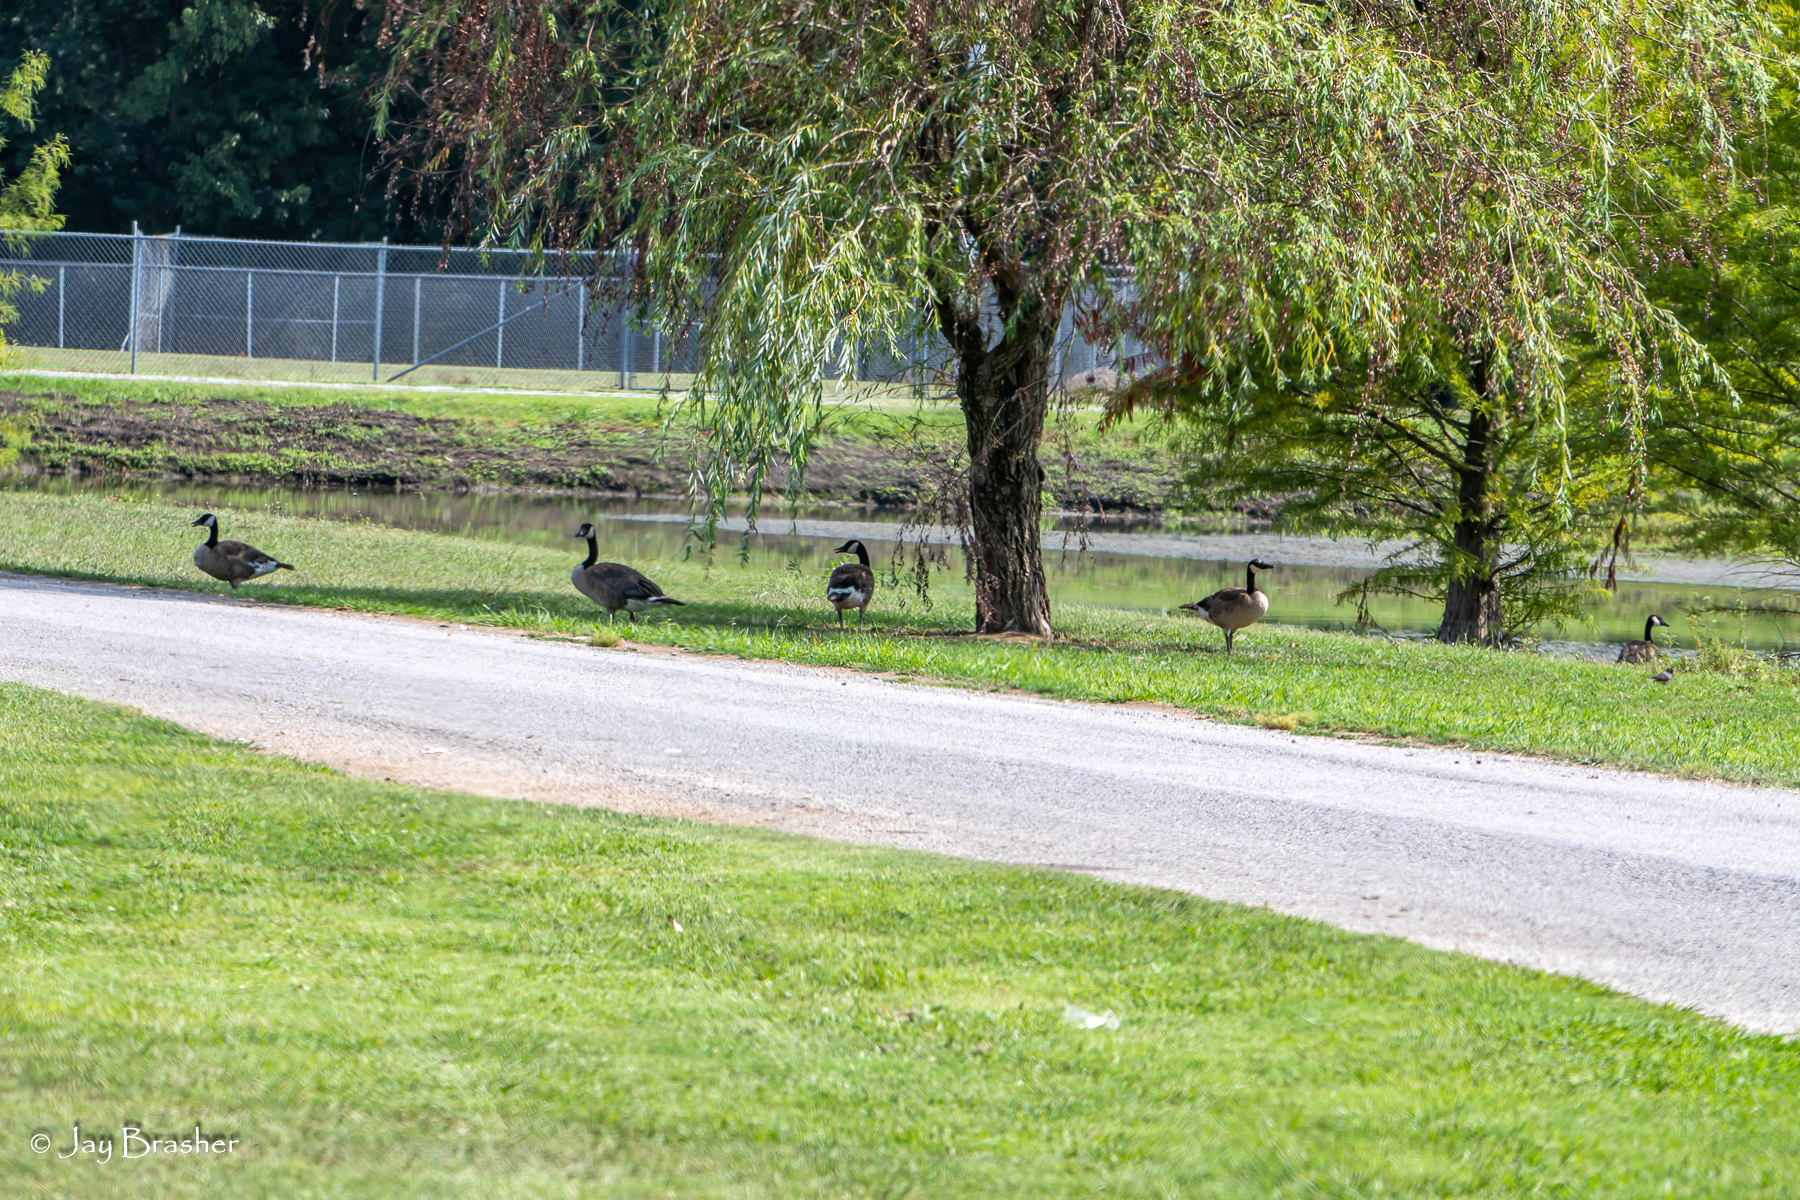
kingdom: Animalia
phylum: Chordata
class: Aves
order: Anseriformes
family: Anatidae
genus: Branta
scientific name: Branta canadensis
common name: Canada goose
